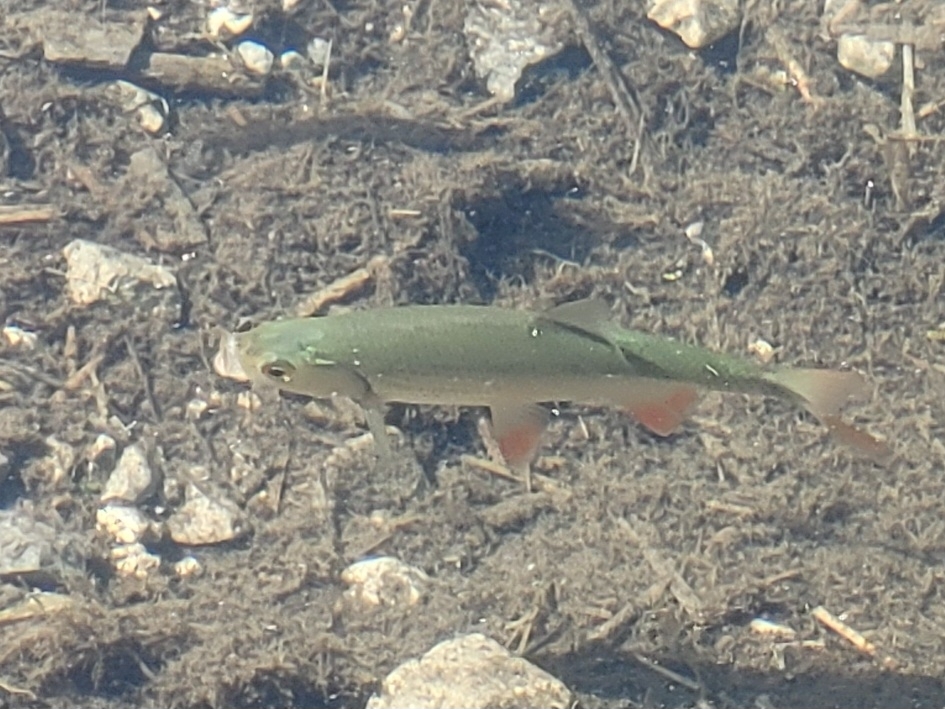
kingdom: Animalia
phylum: Chordata
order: Cypriniformes
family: Cyprinidae
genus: Scardinius
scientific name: Scardinius erythrophthalmus
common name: Rudd
